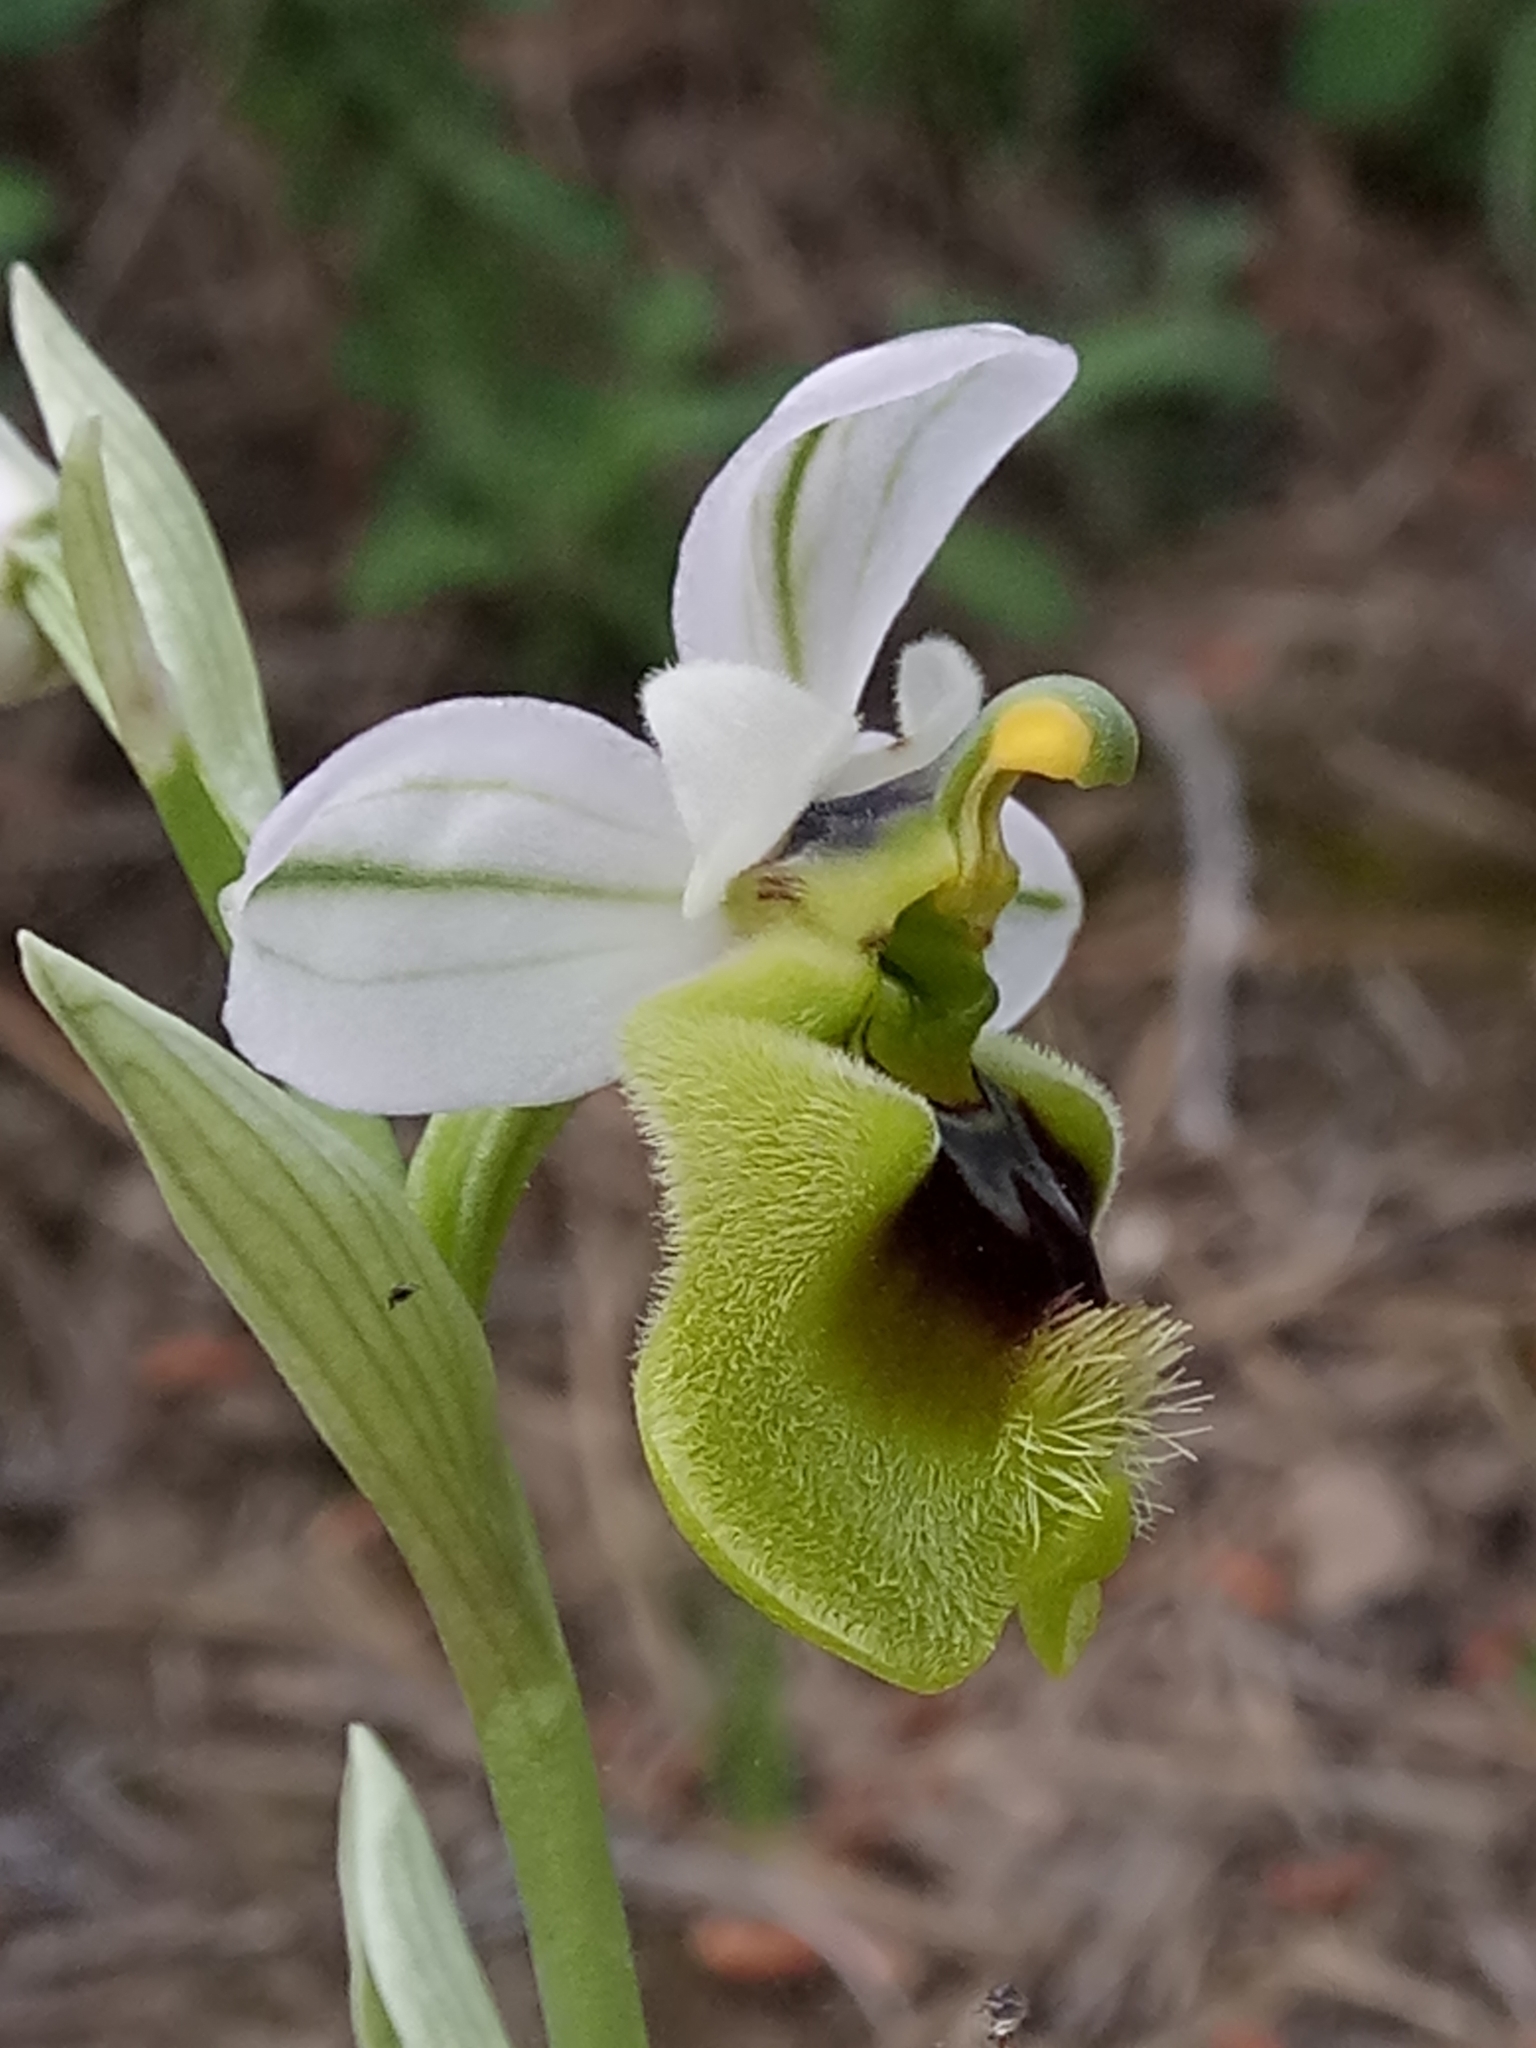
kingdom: Plantae
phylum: Tracheophyta
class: Liliopsida
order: Asparagales
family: Orchidaceae
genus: Ophrys
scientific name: Ophrys tenthredinifera
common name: Sawfly orchid
